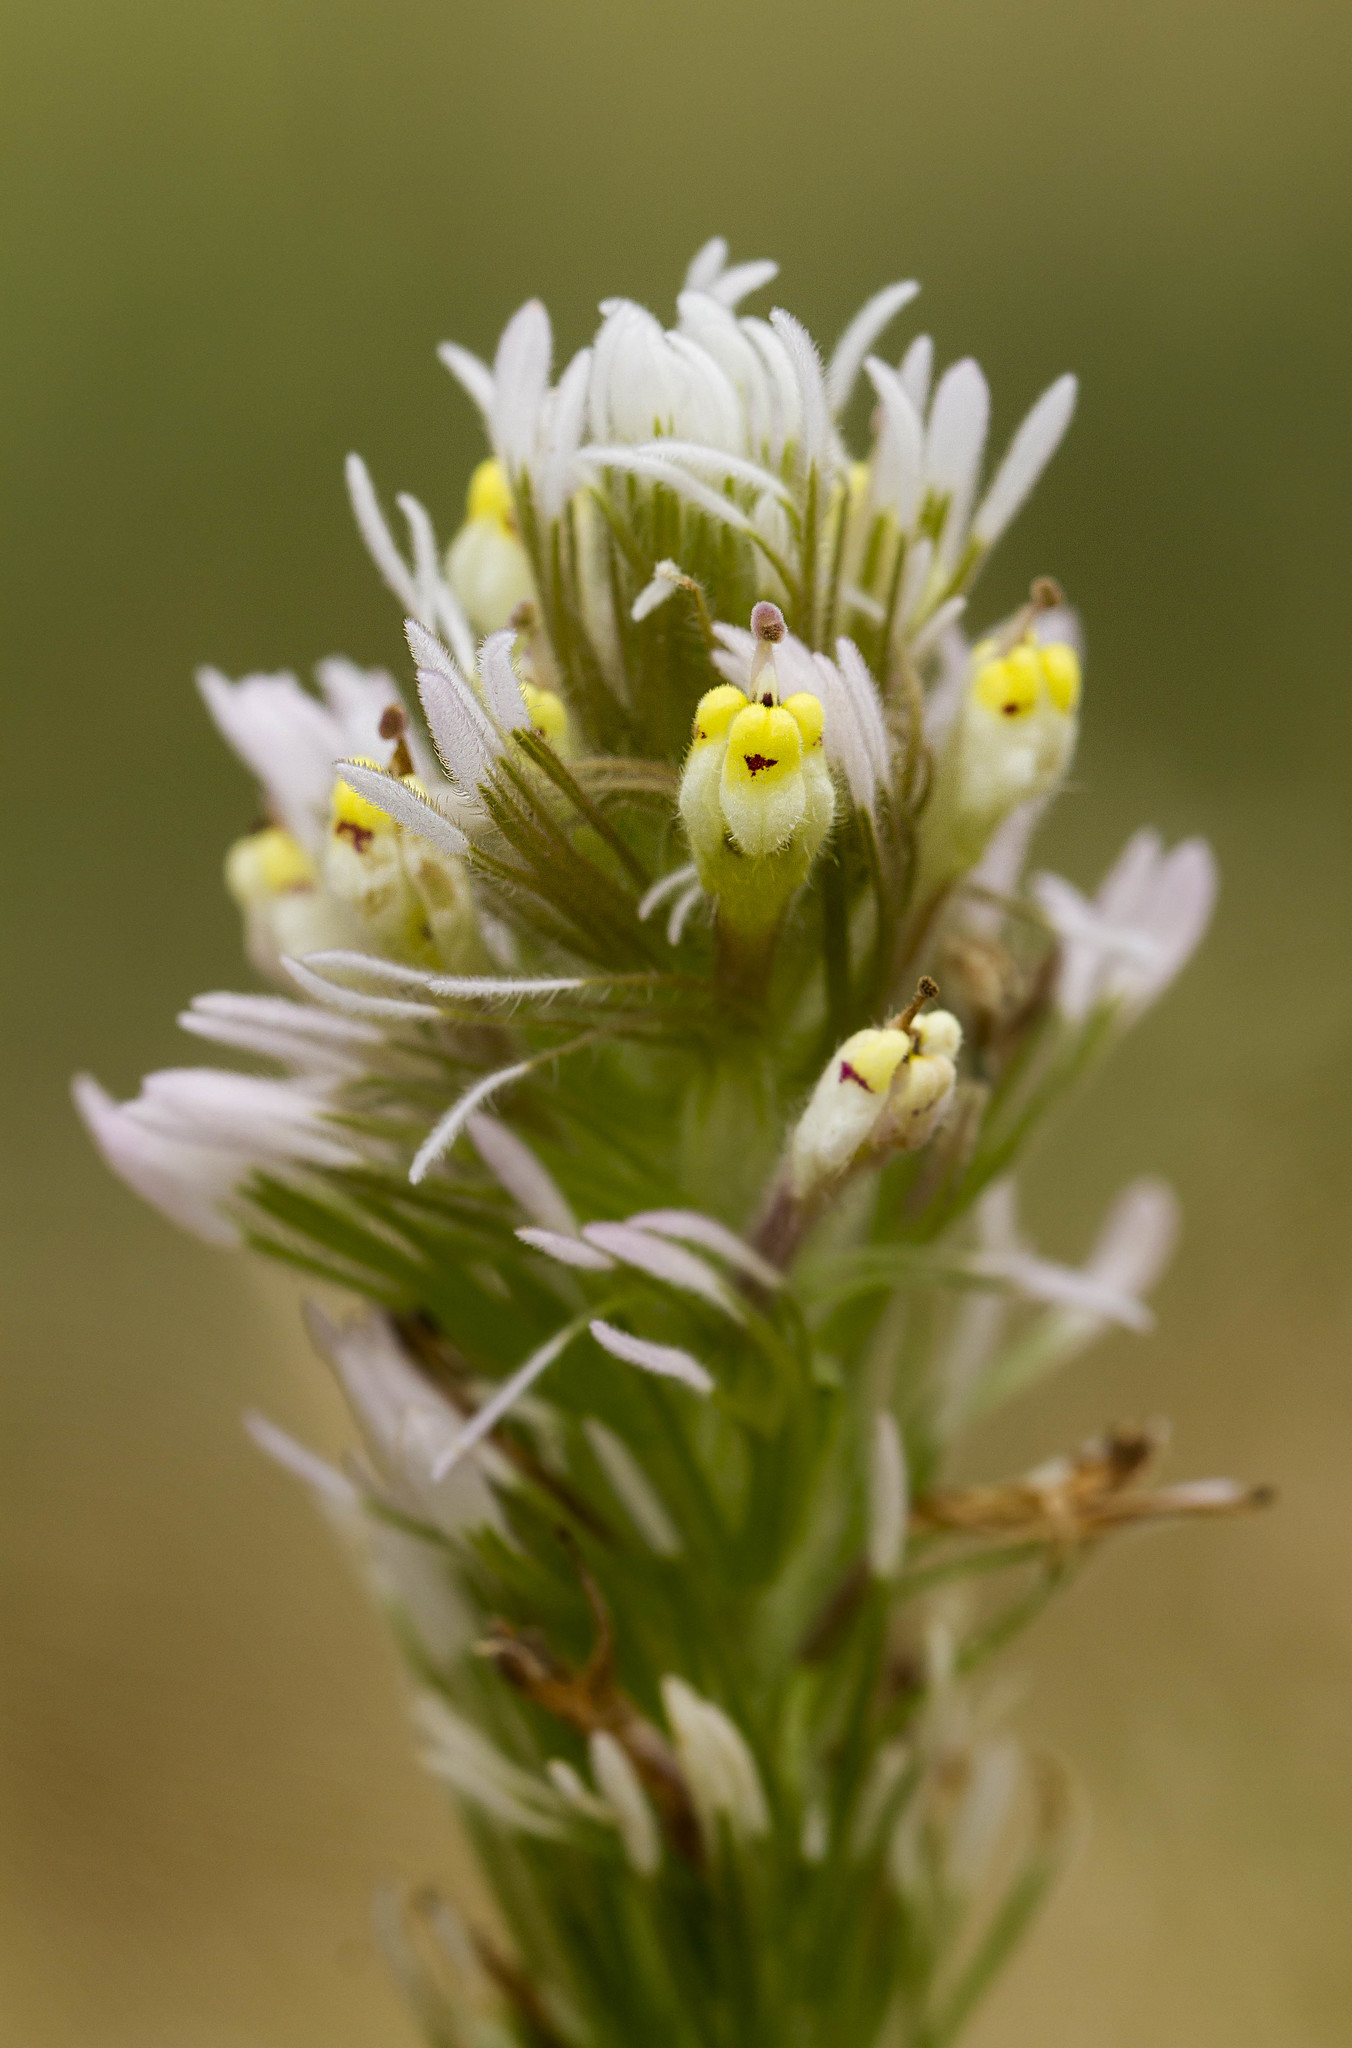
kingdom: Plantae
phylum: Tracheophyta
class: Magnoliopsida
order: Lamiales
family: Orobanchaceae
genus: Castilleja
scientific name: Castilleja lineariloba
